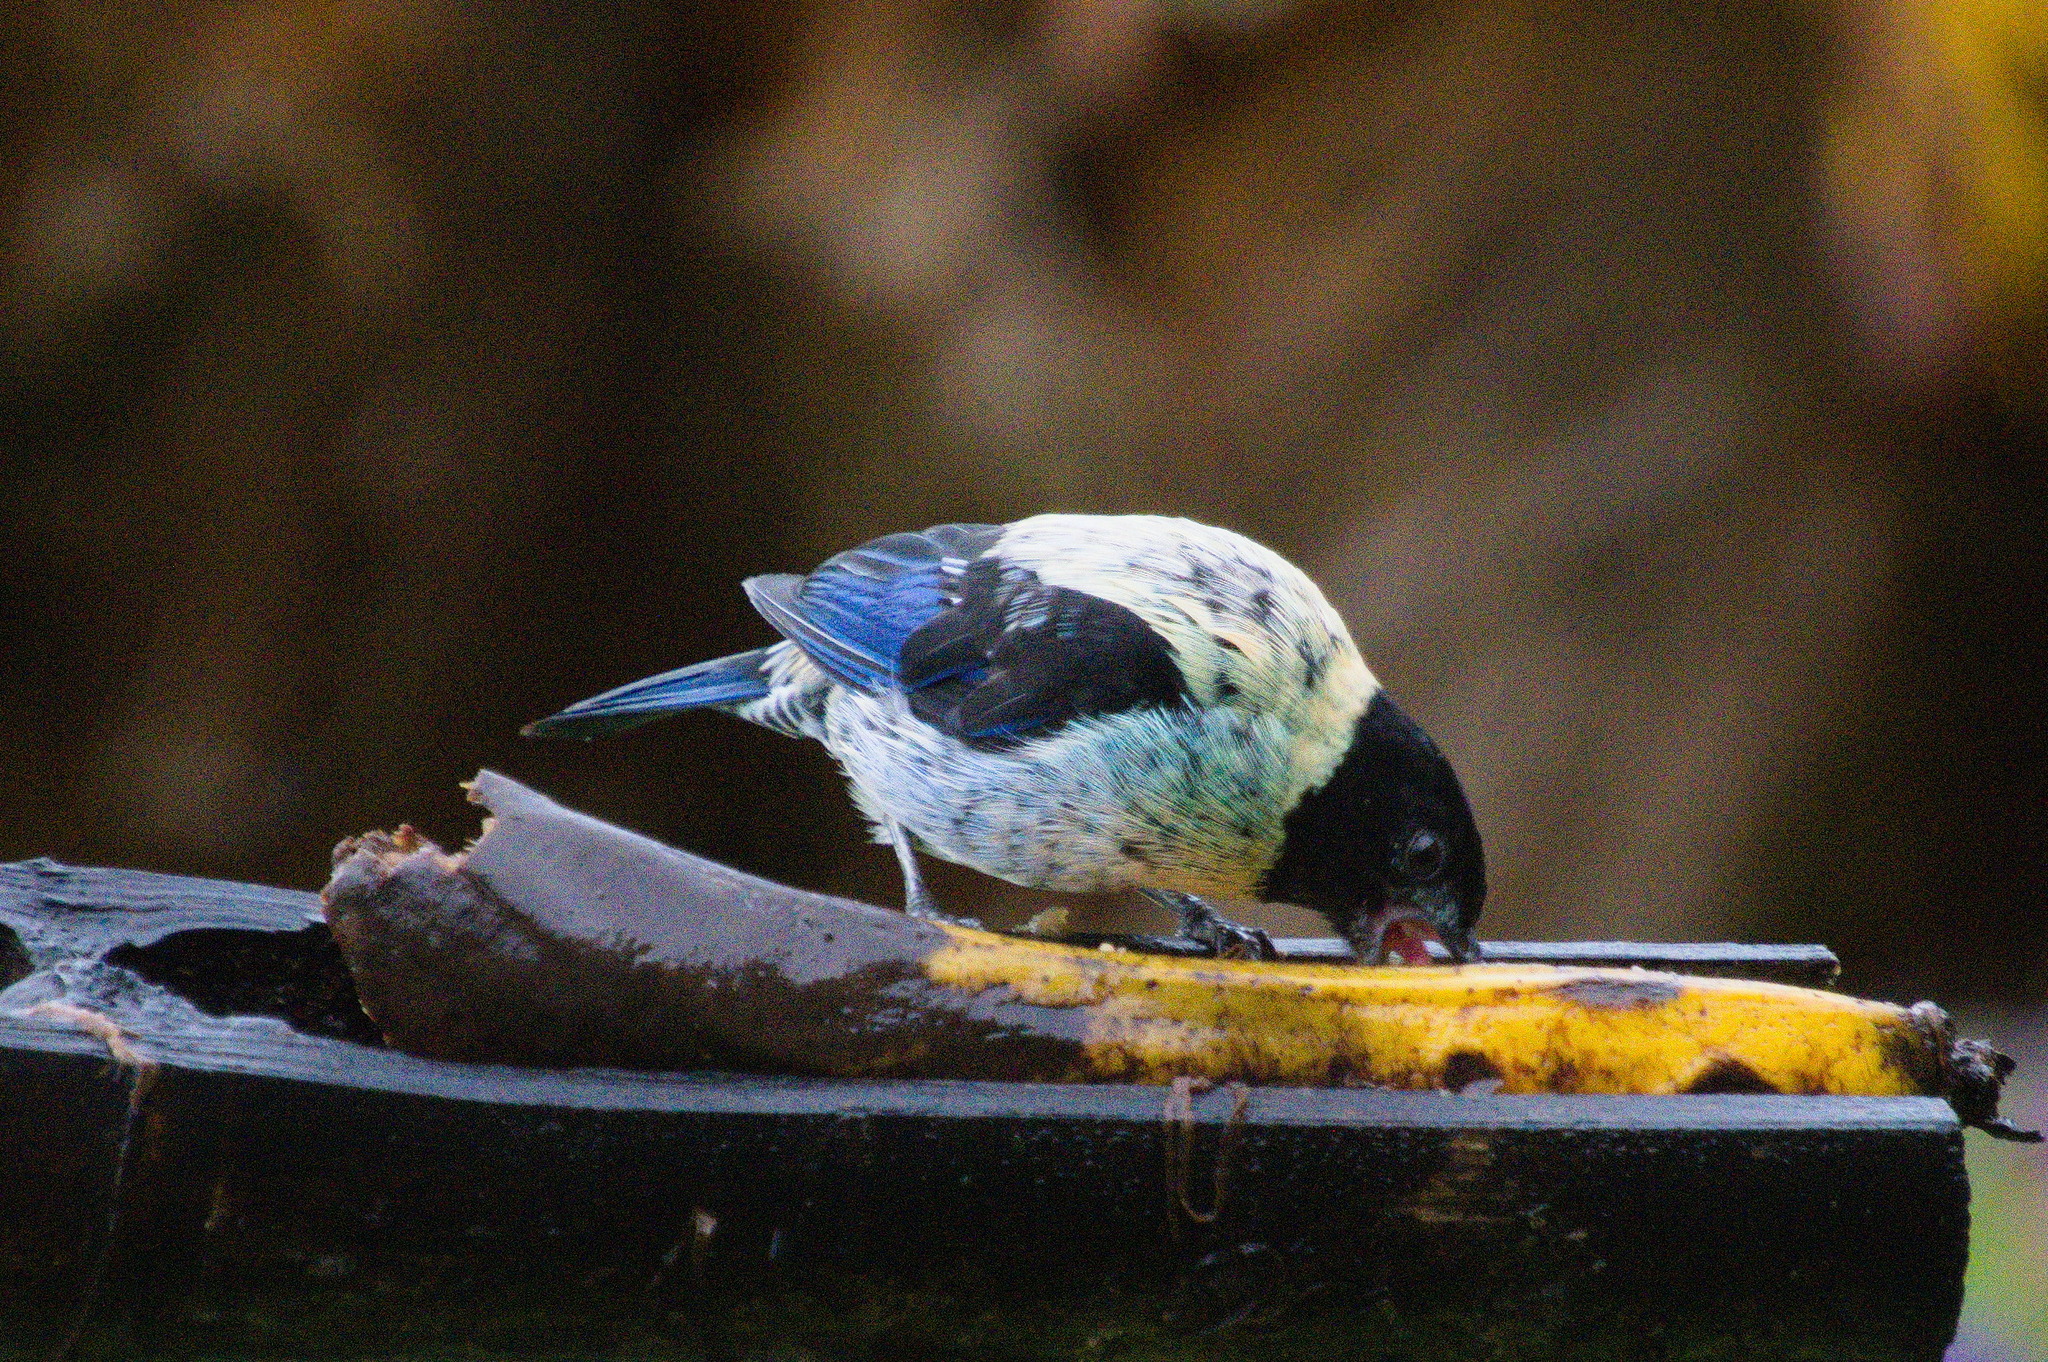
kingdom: Animalia
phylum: Chordata
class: Aves
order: Passeriformes
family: Thraupidae
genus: Stilpnia
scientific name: Stilpnia cyanoptera
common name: Black-headed tanager
